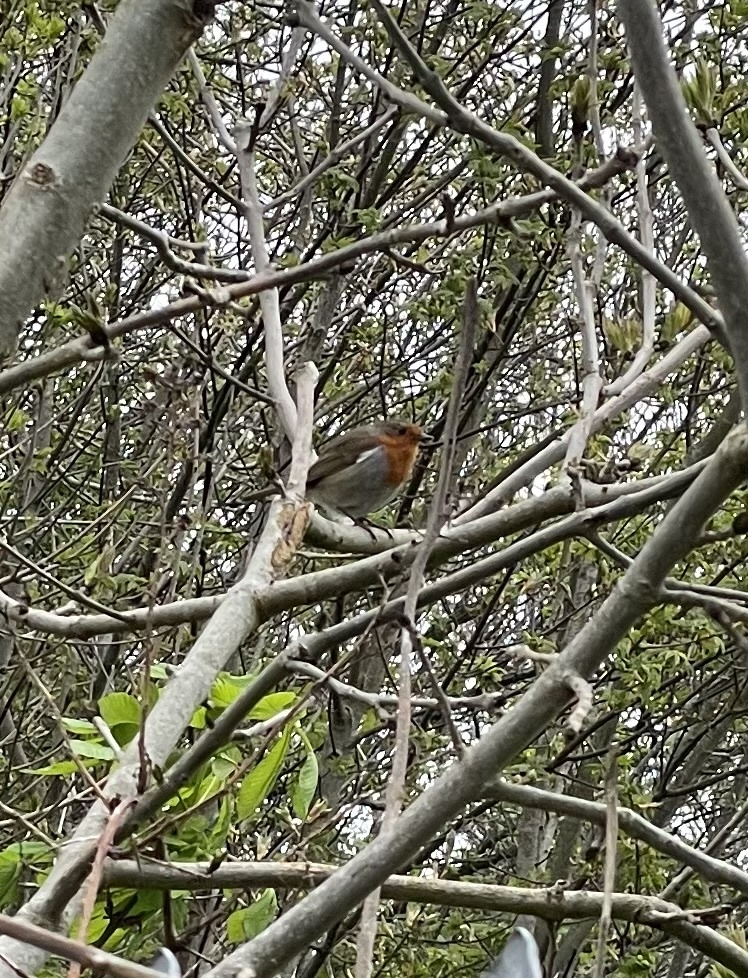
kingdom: Animalia
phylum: Chordata
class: Aves
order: Passeriformes
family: Muscicapidae
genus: Erithacus
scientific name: Erithacus rubecula
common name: European robin
